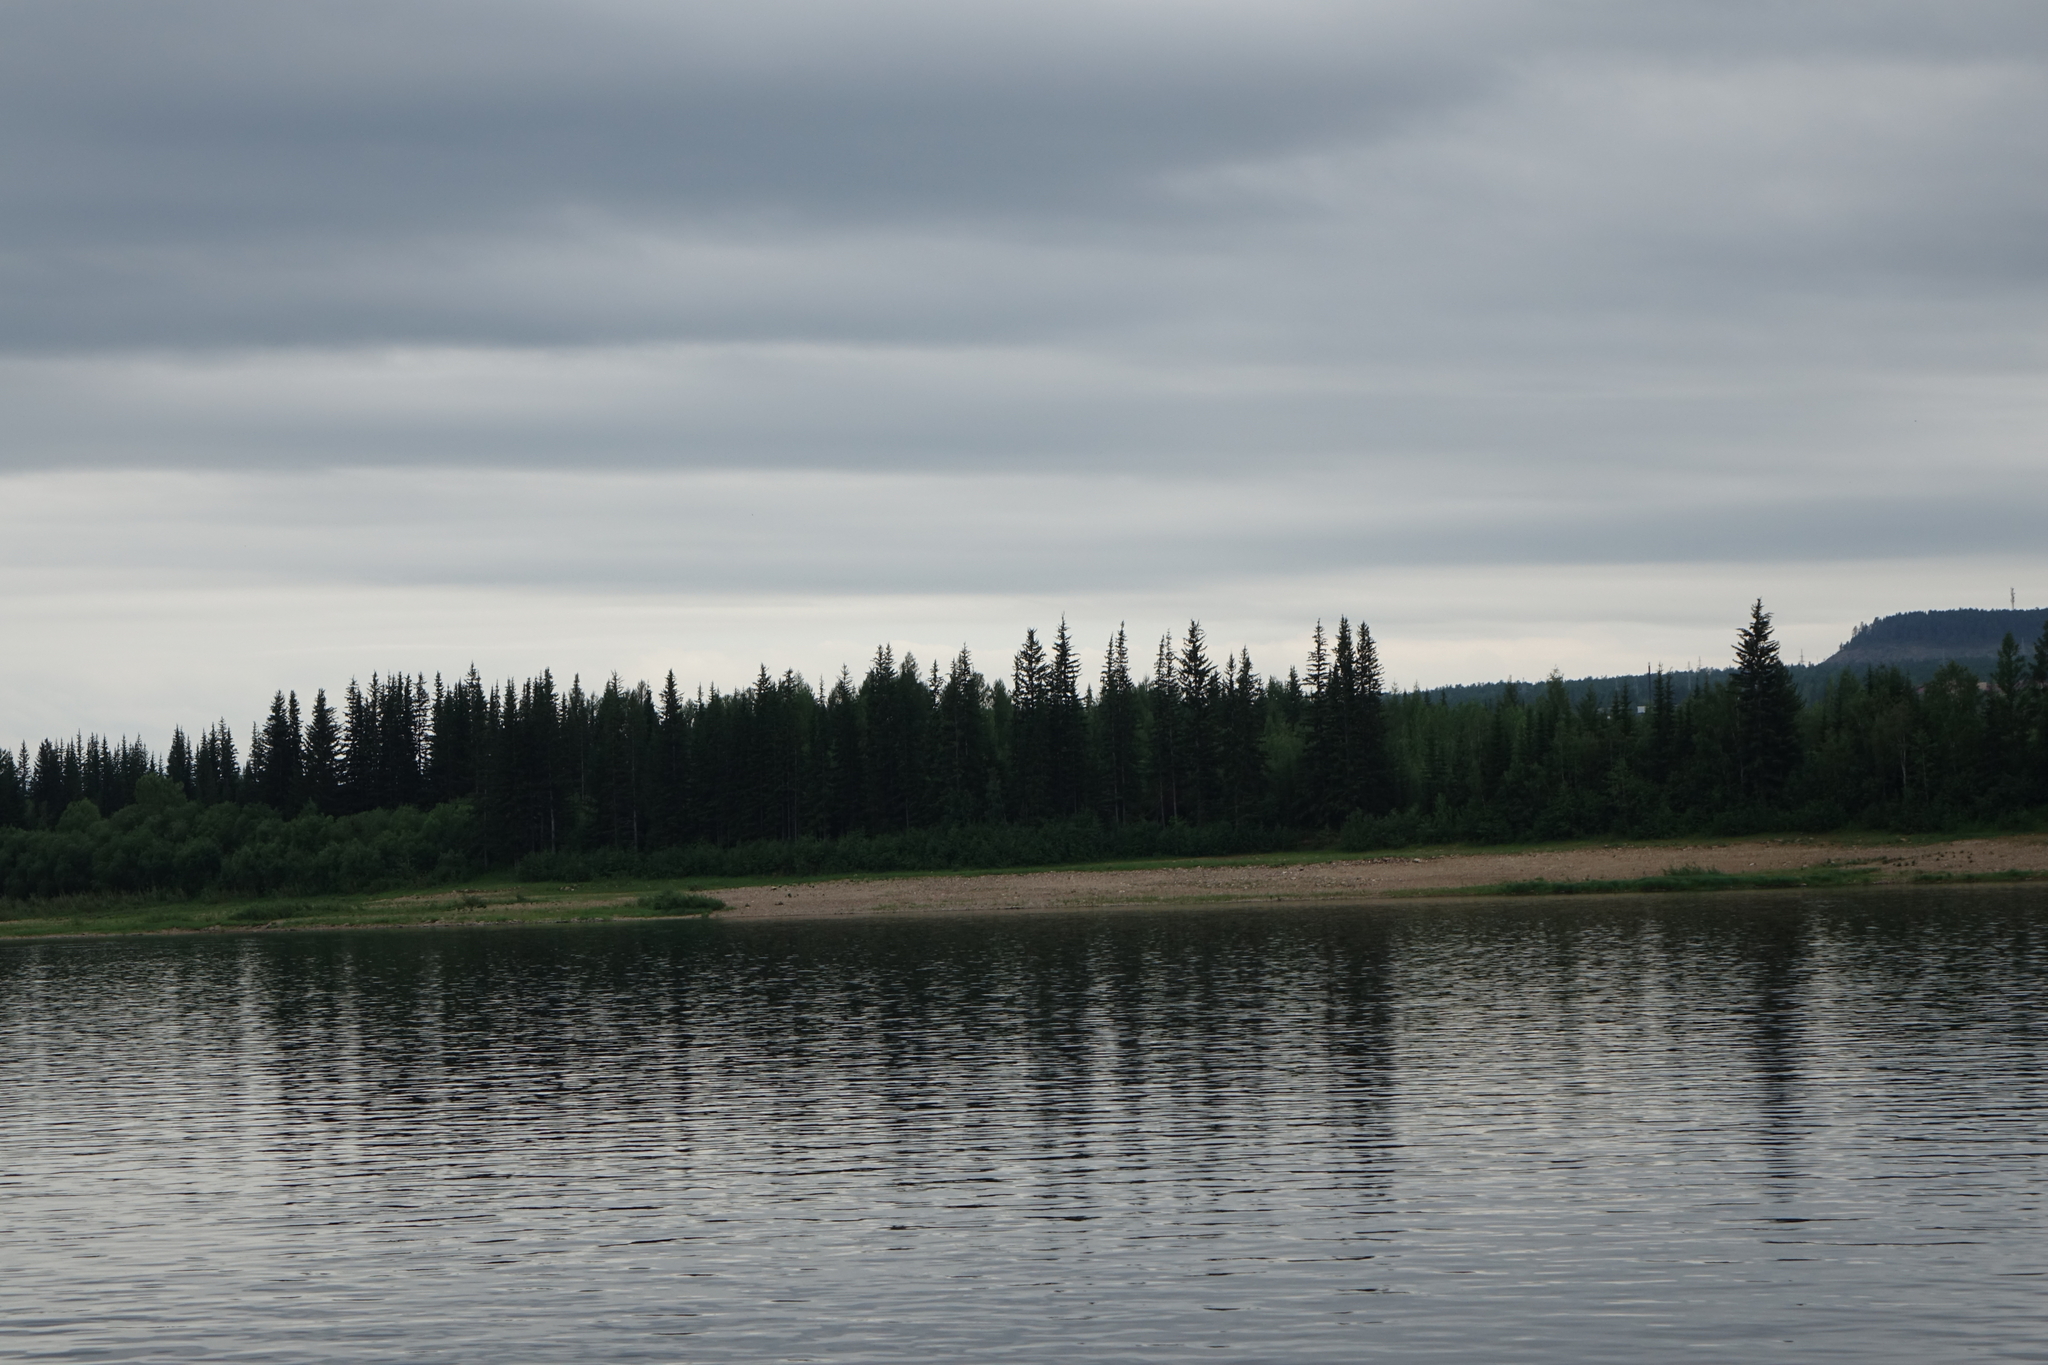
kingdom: Plantae
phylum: Tracheophyta
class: Pinopsida
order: Pinales
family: Pinaceae
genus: Picea
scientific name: Picea obovata
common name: Siberian spruce
